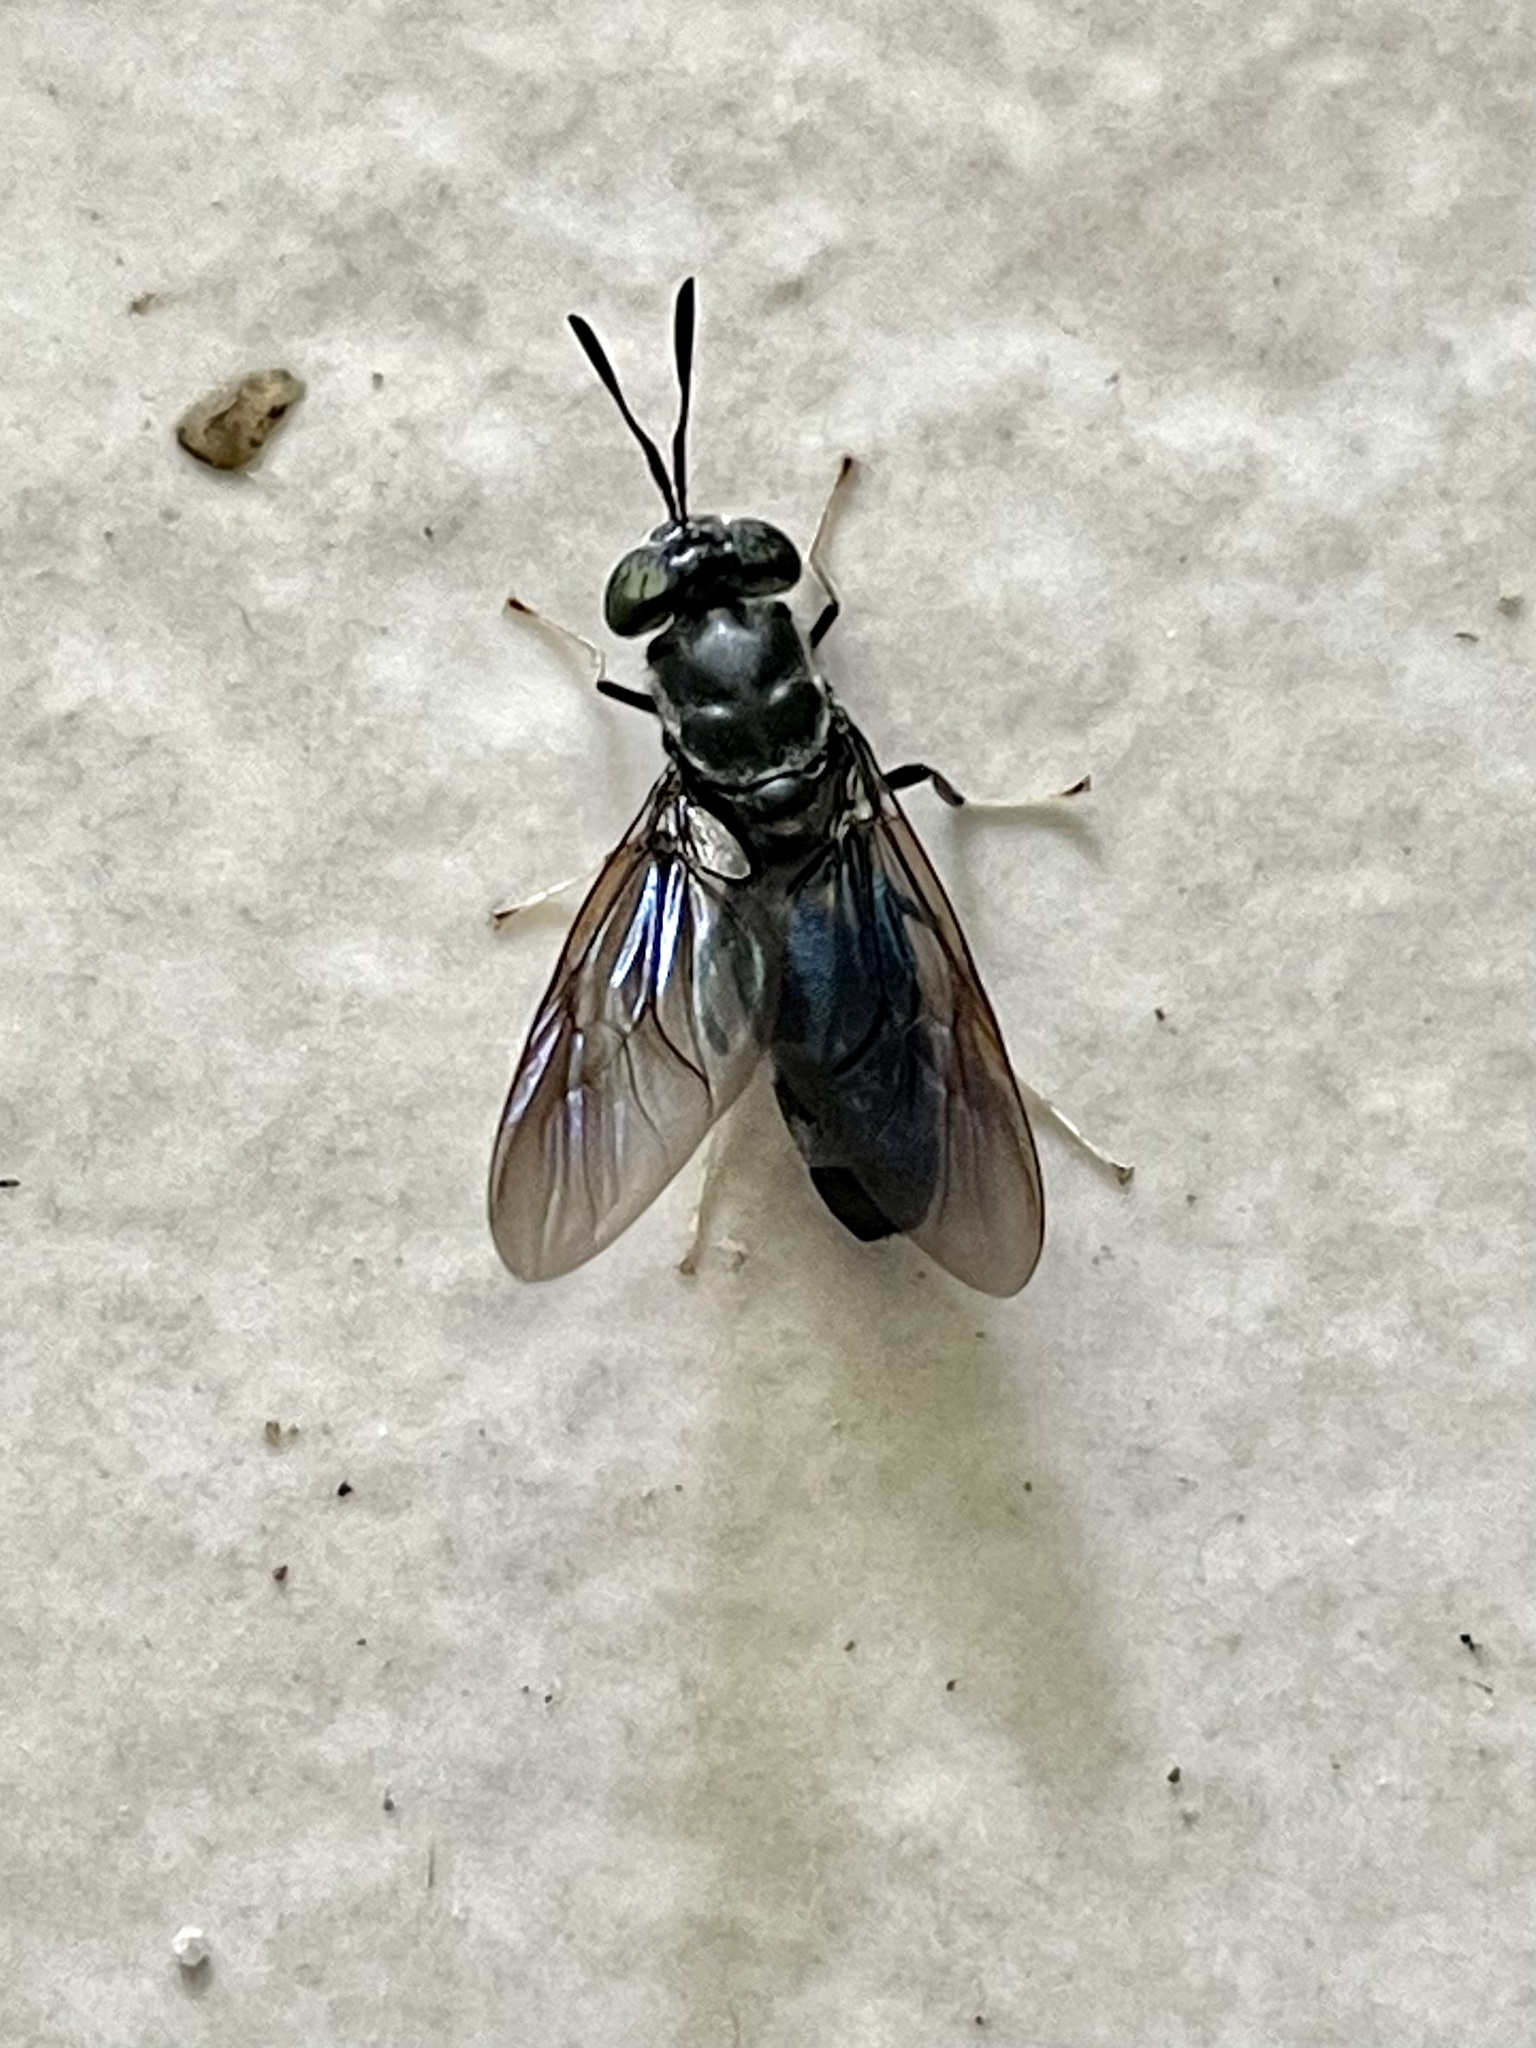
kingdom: Animalia
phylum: Arthropoda
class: Insecta
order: Diptera
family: Stratiomyidae
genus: Hermetia
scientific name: Hermetia illucens
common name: Black soldier fly
